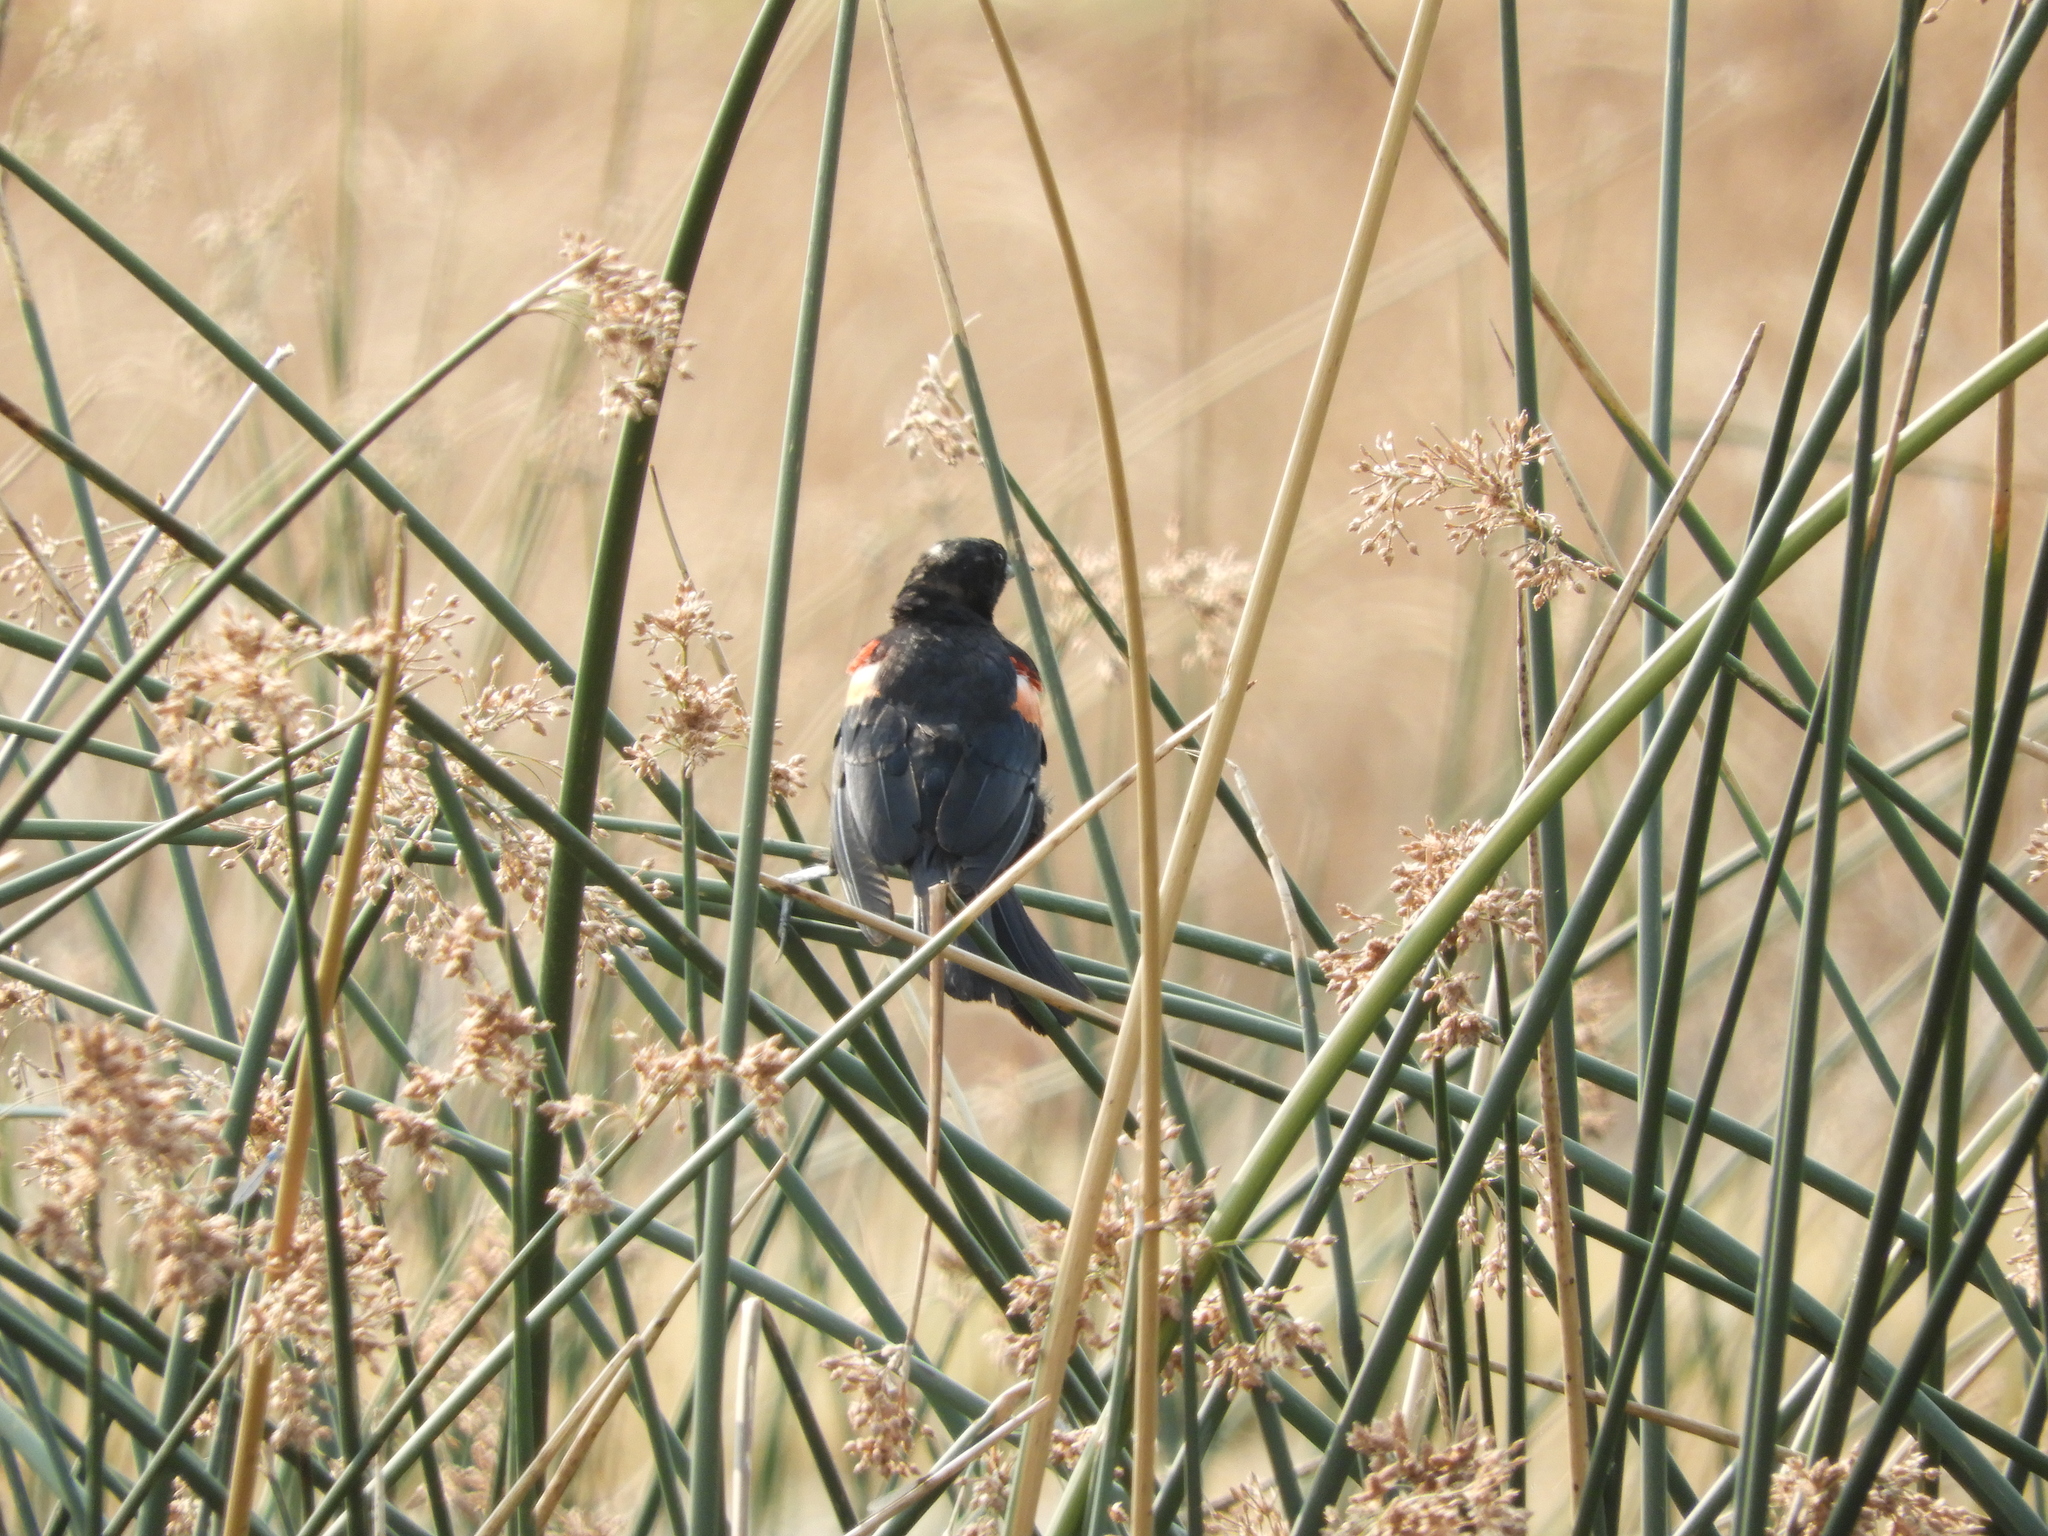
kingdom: Animalia
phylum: Chordata
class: Aves
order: Passeriformes
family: Icteridae
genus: Agelaius
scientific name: Agelaius tricolor
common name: Tricolored blackbird
